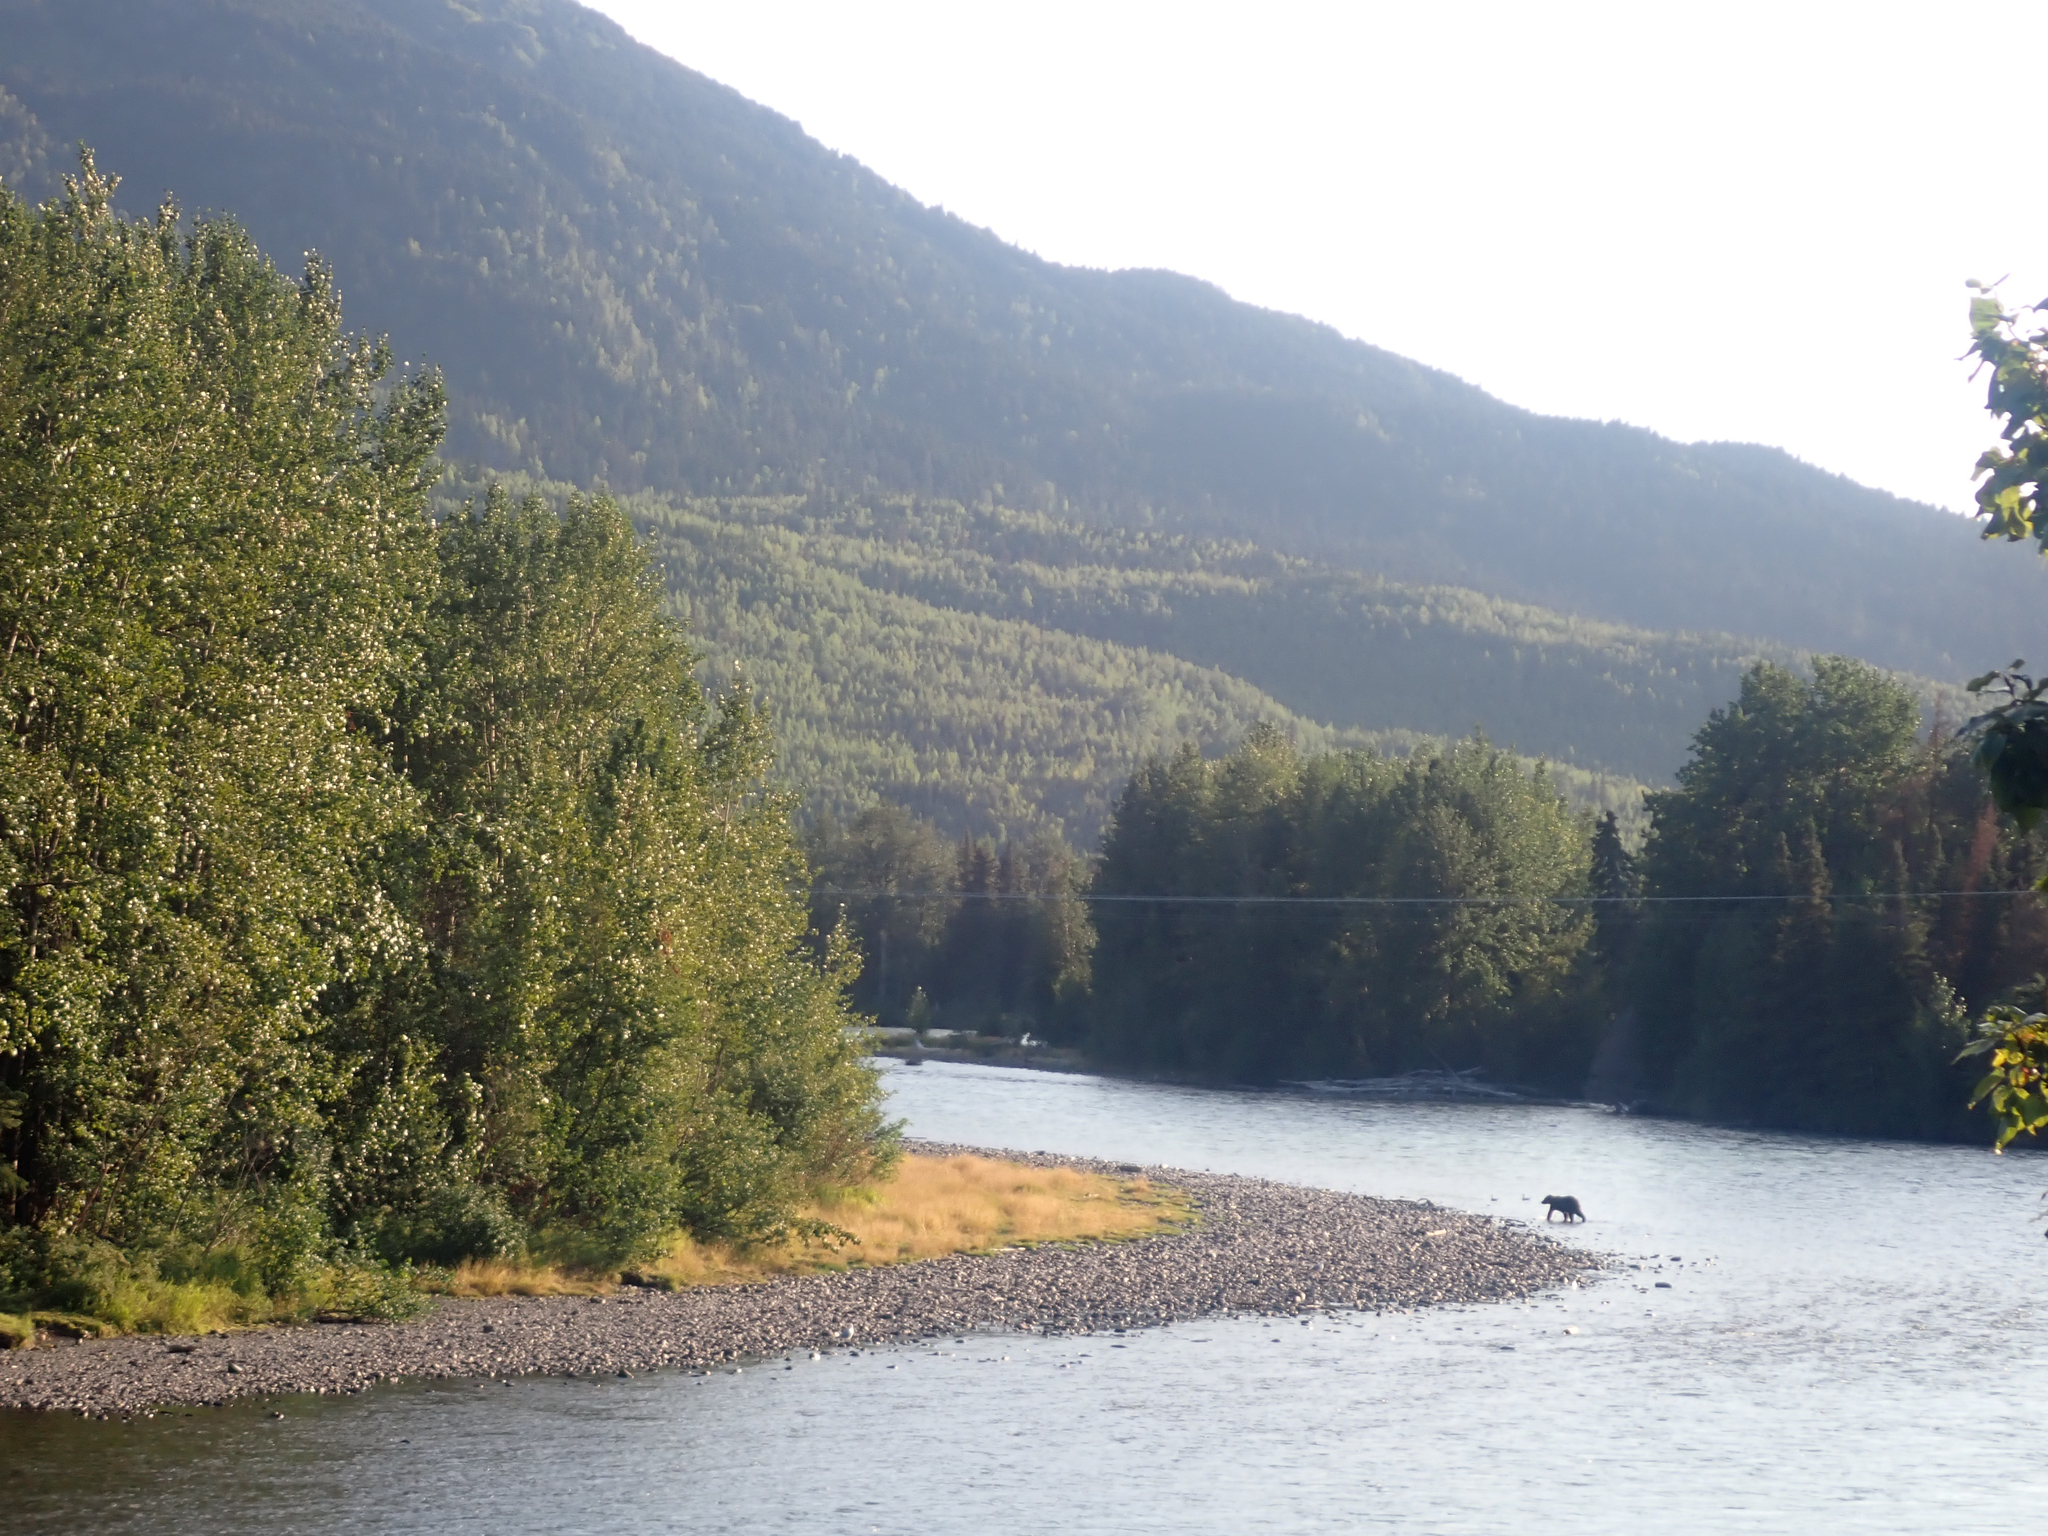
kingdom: Animalia
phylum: Chordata
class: Mammalia
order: Carnivora
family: Ursidae
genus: Ursus
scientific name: Ursus arctos
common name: Brown bear
